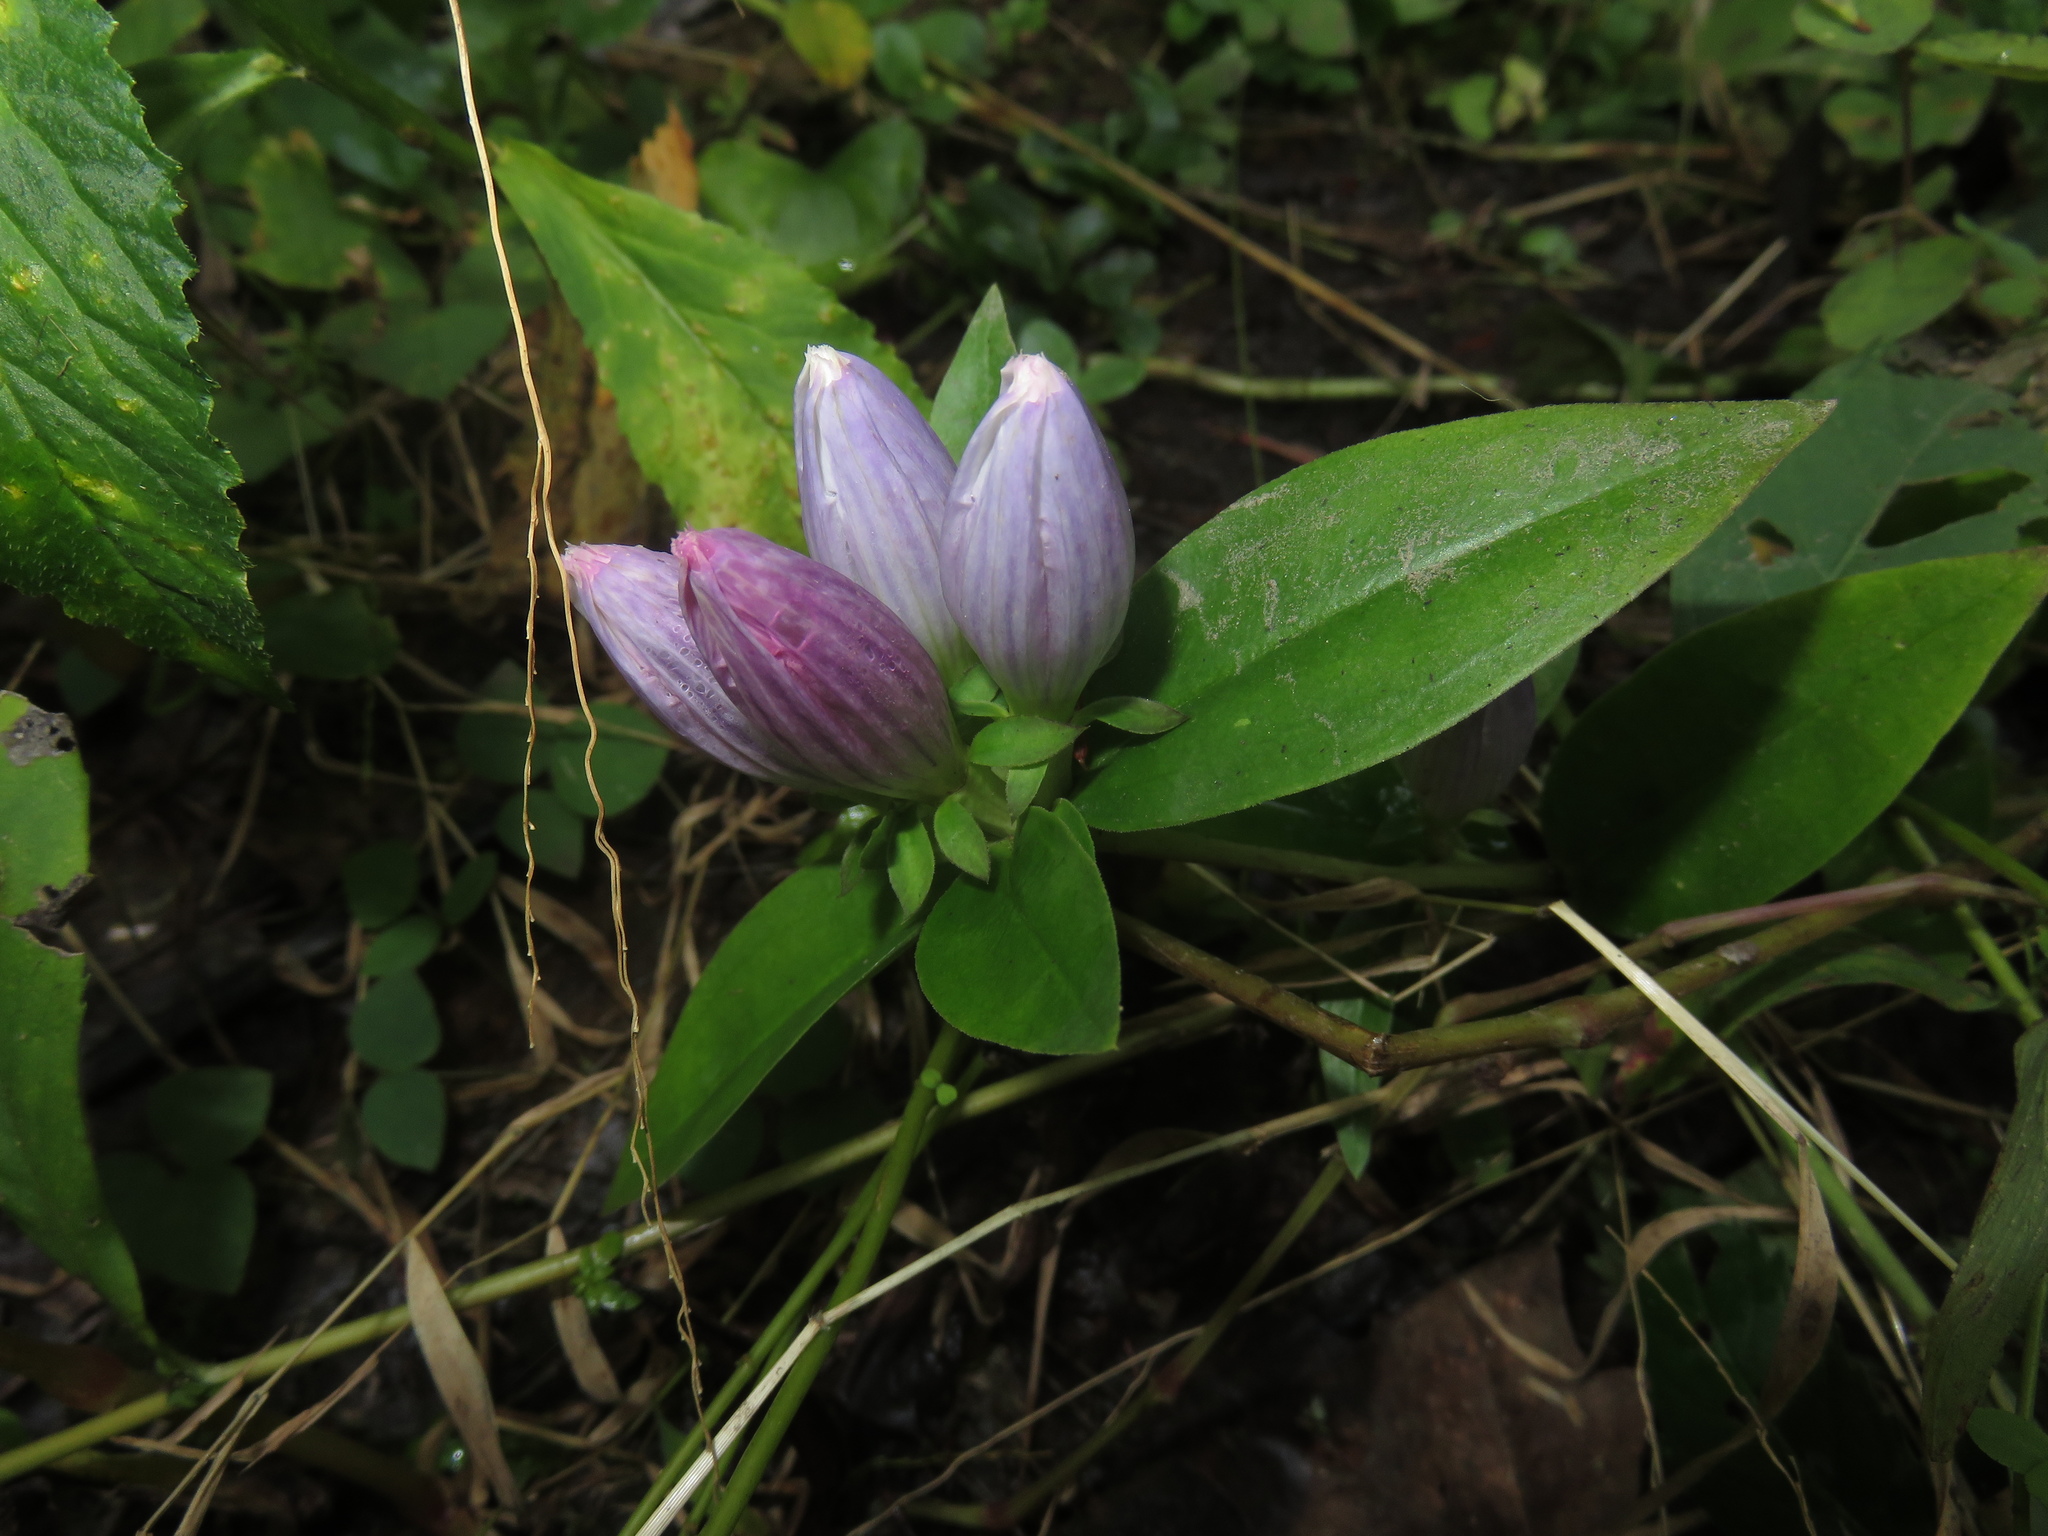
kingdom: Plantae
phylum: Tracheophyta
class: Magnoliopsida
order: Gentianales
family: Gentianaceae
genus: Gentiana
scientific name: Gentiana andrewsii
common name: Bottle gentian
